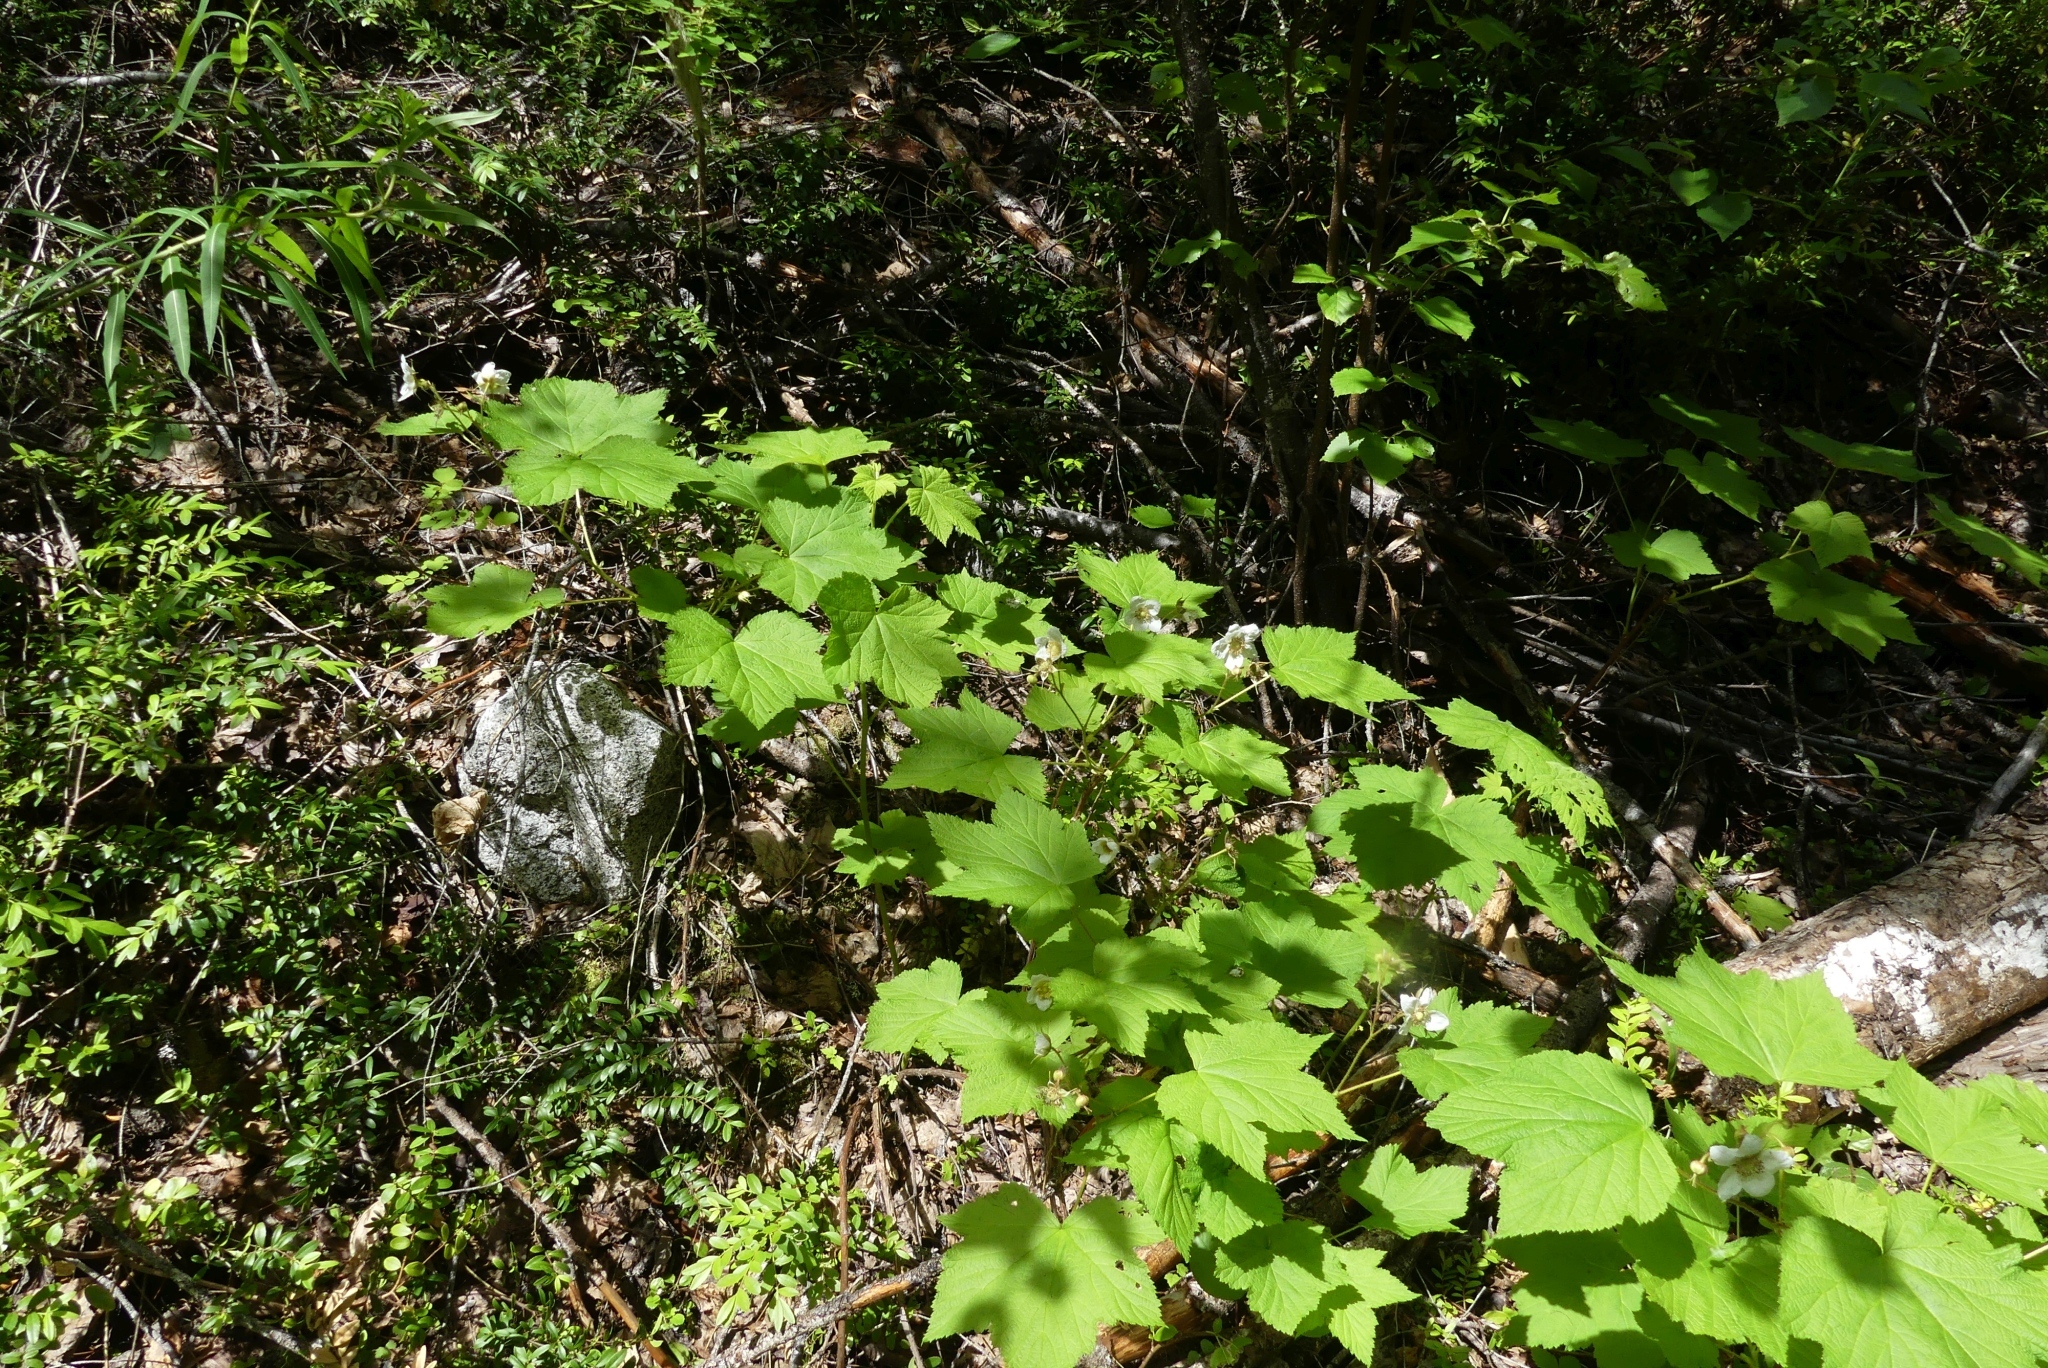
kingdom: Plantae
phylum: Tracheophyta
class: Magnoliopsida
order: Rosales
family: Rosaceae
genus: Rubus
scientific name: Rubus parviflorus
